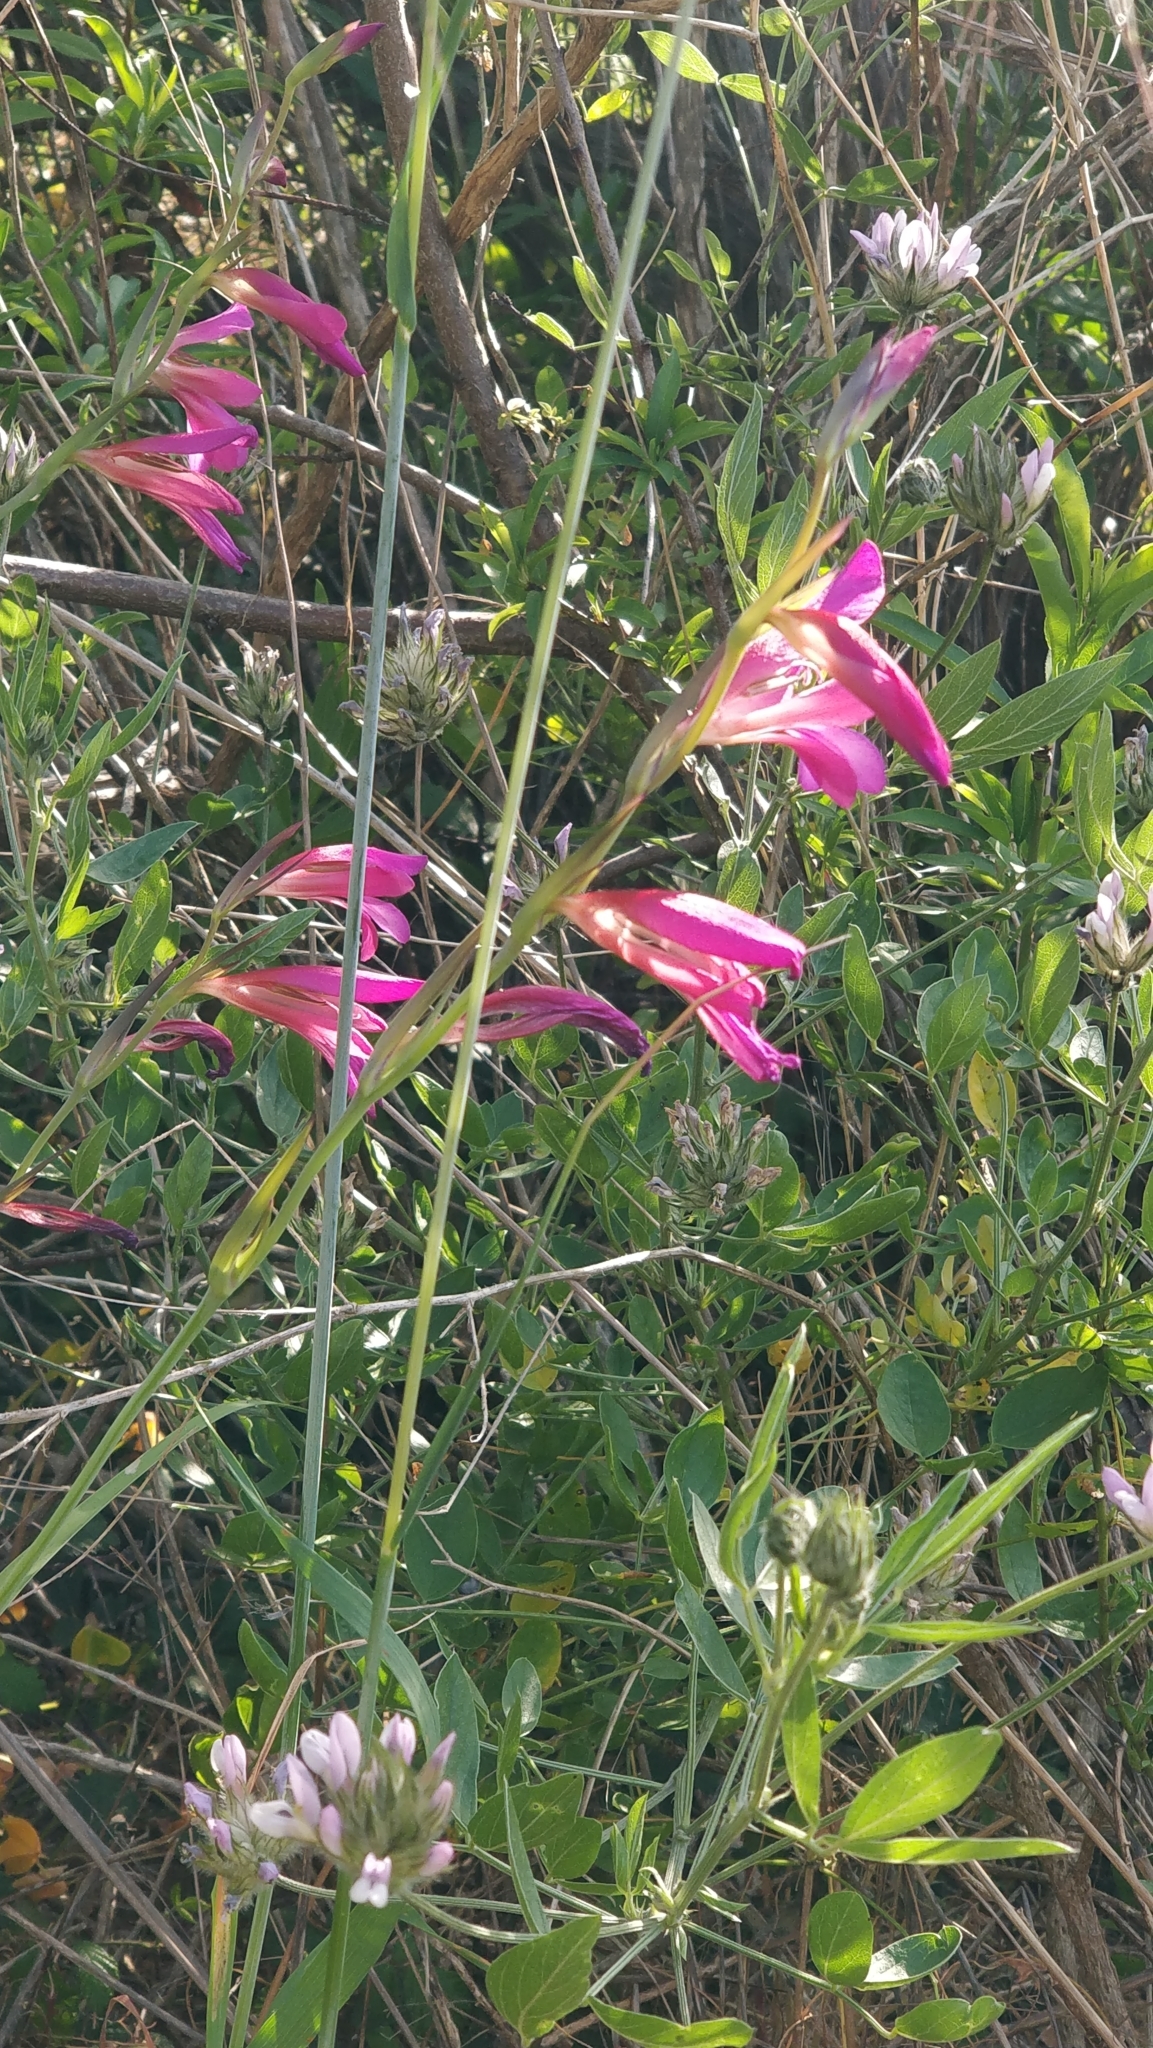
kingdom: Plantae
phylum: Tracheophyta
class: Liliopsida
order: Asparagales
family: Iridaceae
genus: Gladiolus
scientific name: Gladiolus italicus
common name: Field gladiolus
